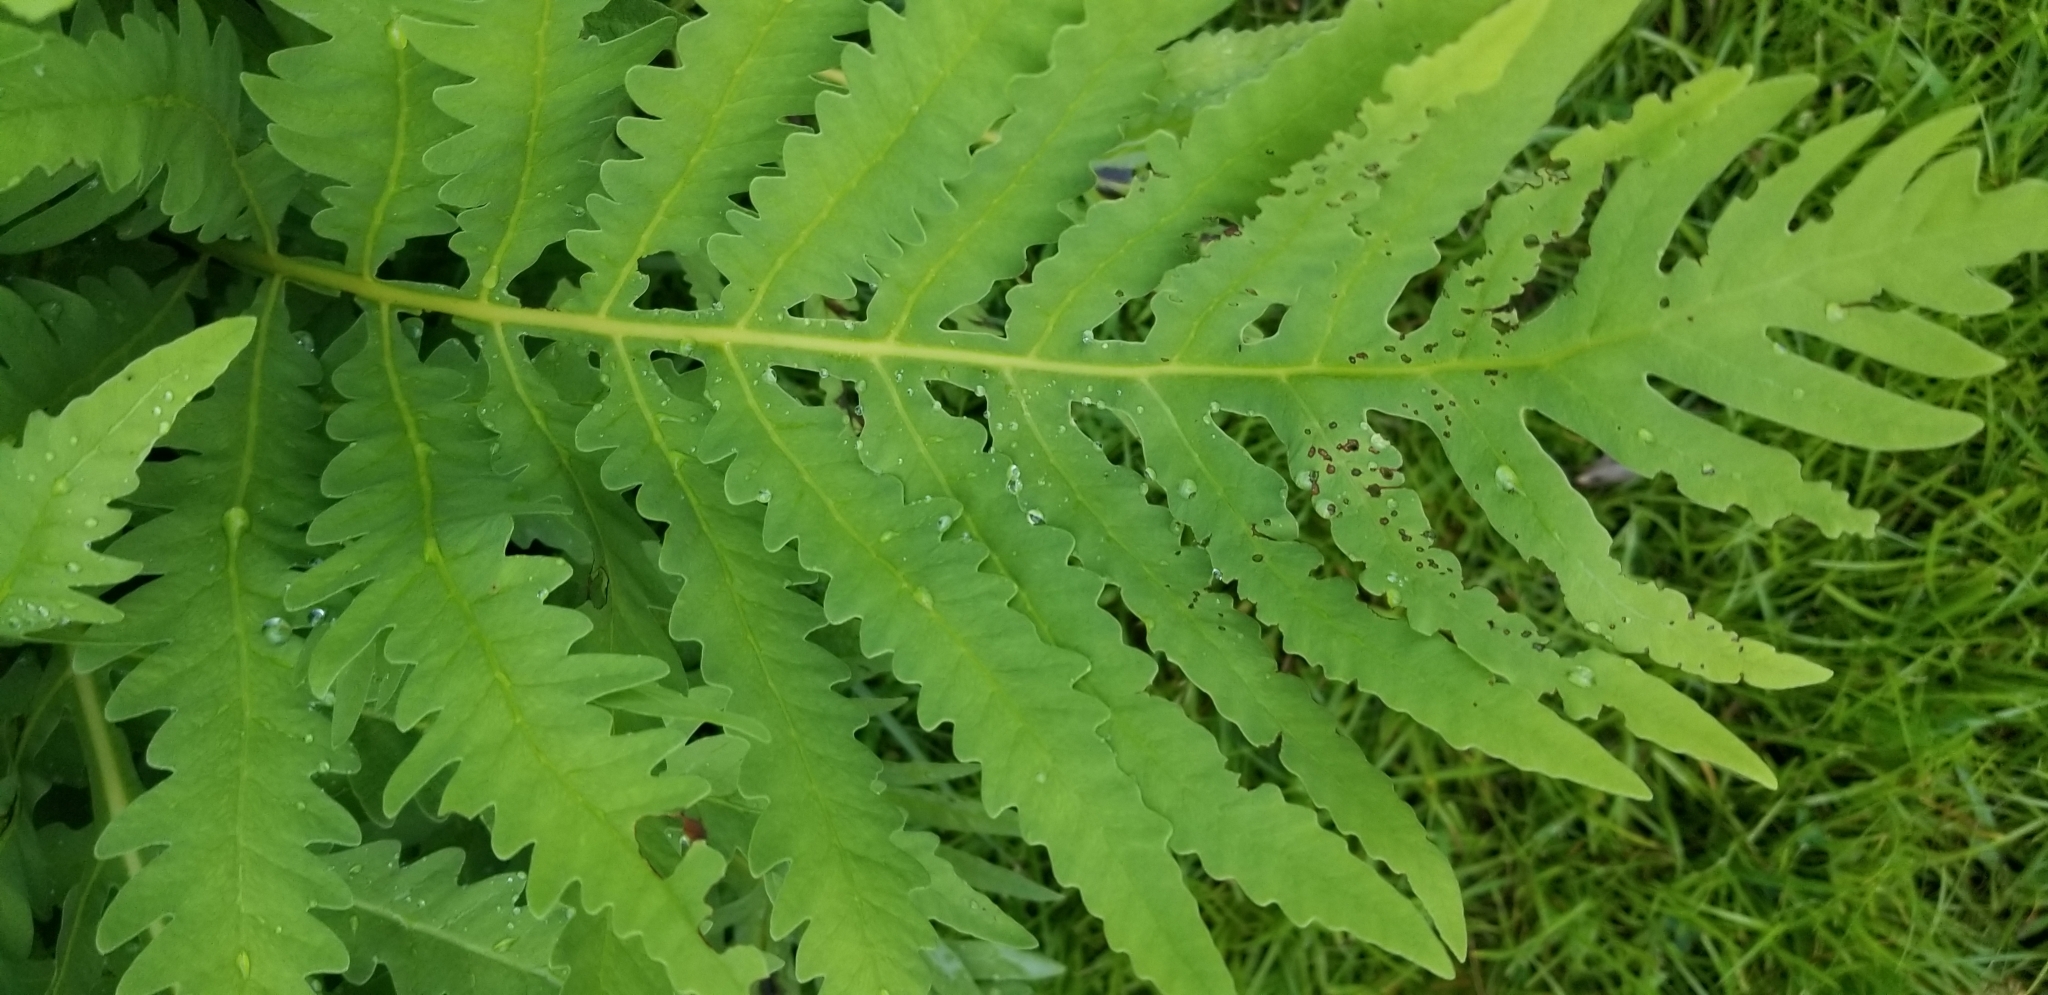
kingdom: Plantae
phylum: Tracheophyta
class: Polypodiopsida
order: Polypodiales
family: Onocleaceae
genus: Onoclea
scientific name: Onoclea sensibilis
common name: Sensitive fern
